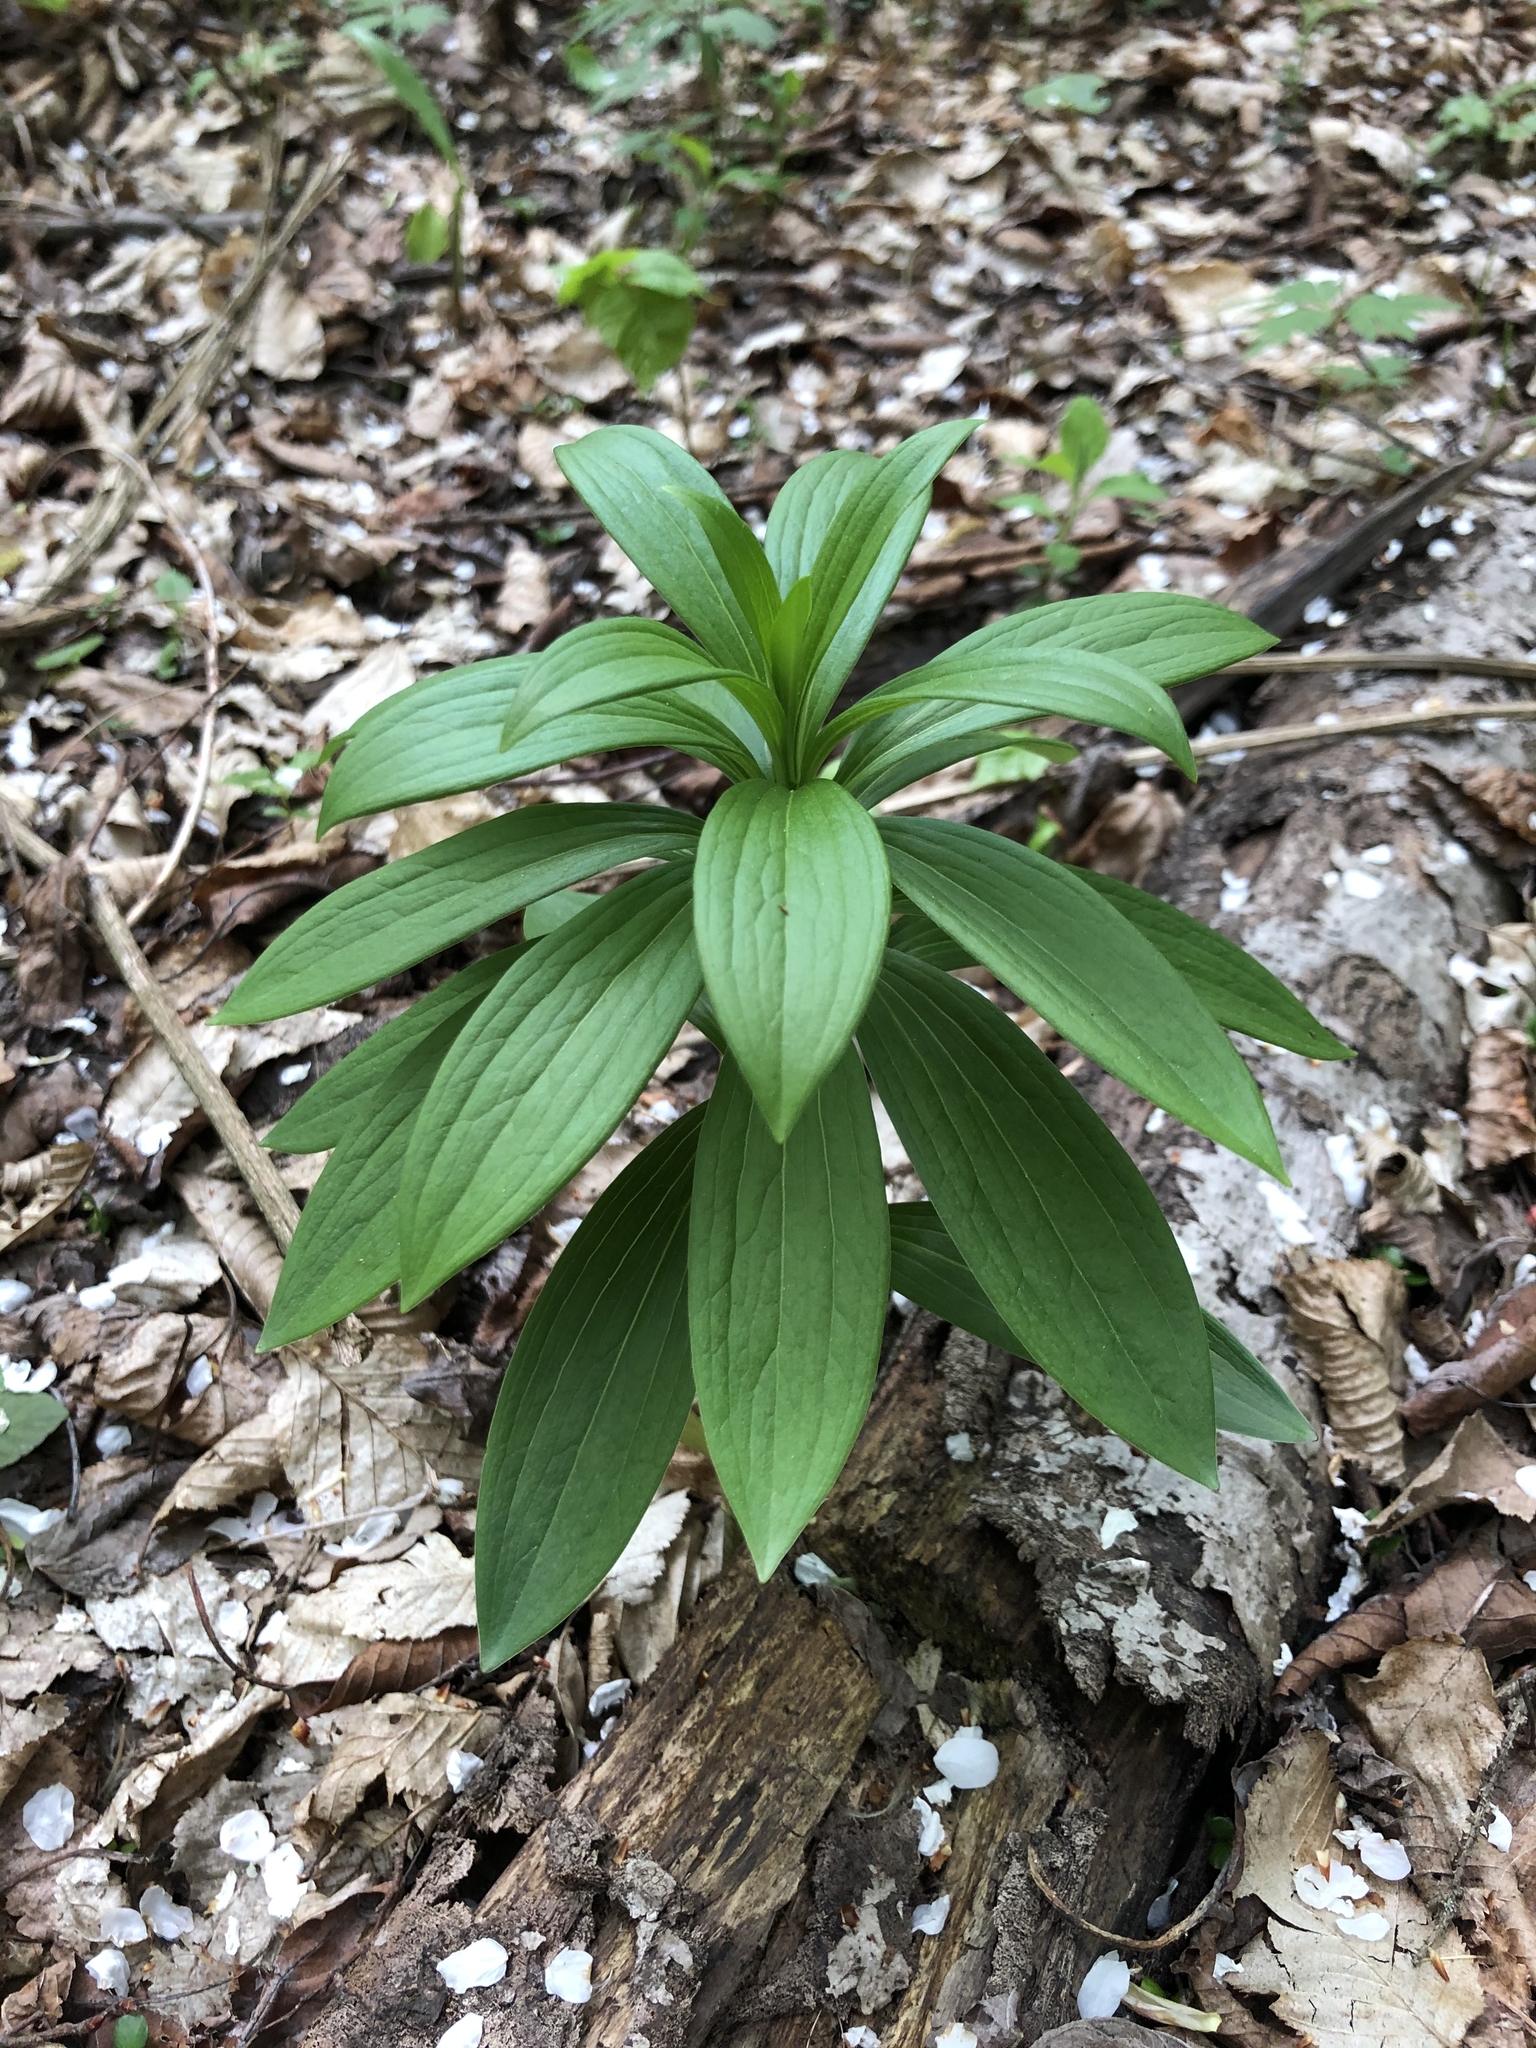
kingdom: Plantae
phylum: Tracheophyta
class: Liliopsida
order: Liliales
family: Liliaceae
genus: Lilium
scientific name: Lilium martagon
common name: Martagon lily
